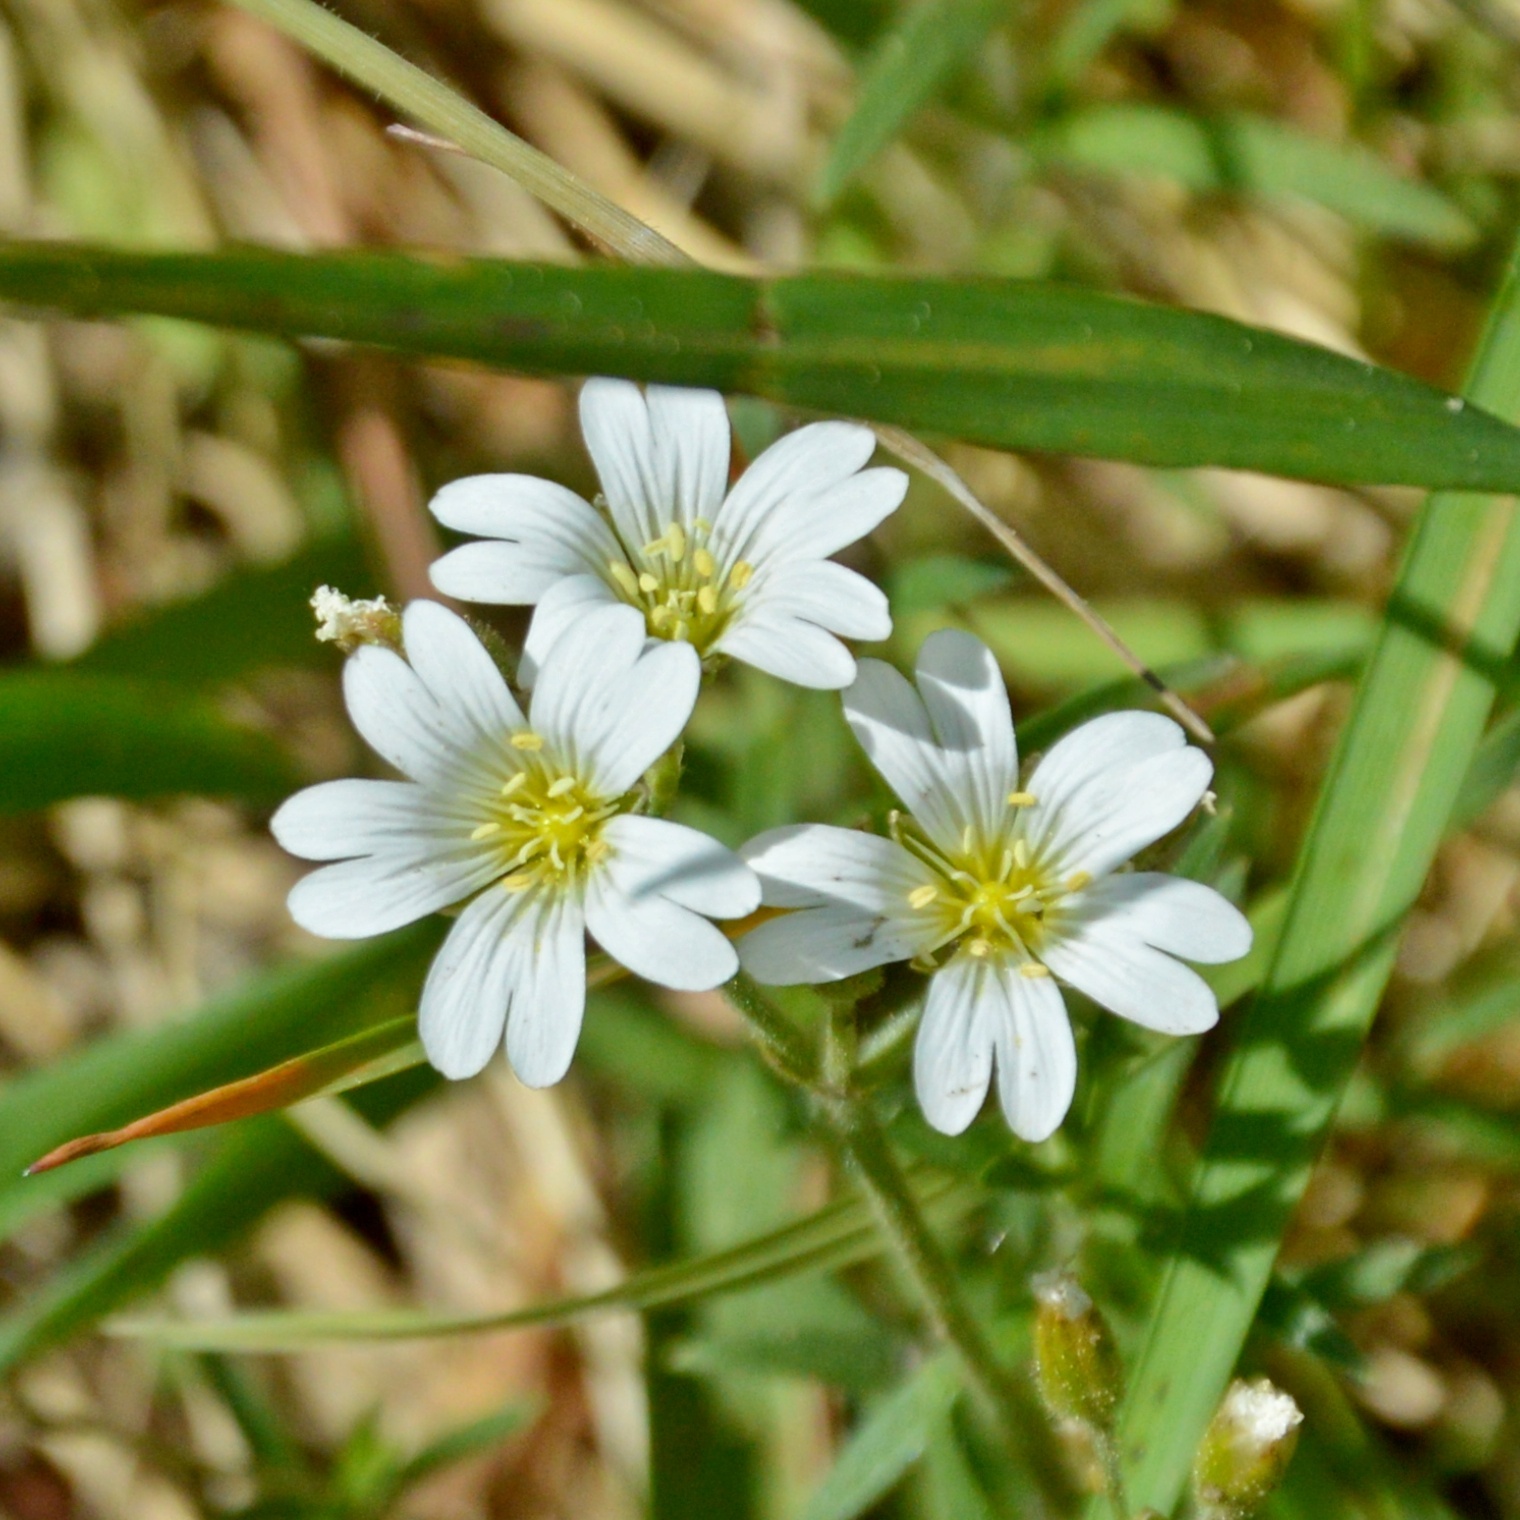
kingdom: Plantae
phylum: Tracheophyta
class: Magnoliopsida
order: Caryophyllales
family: Caryophyllaceae
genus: Cerastium
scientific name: Cerastium arvense
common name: Field mouse-ear
